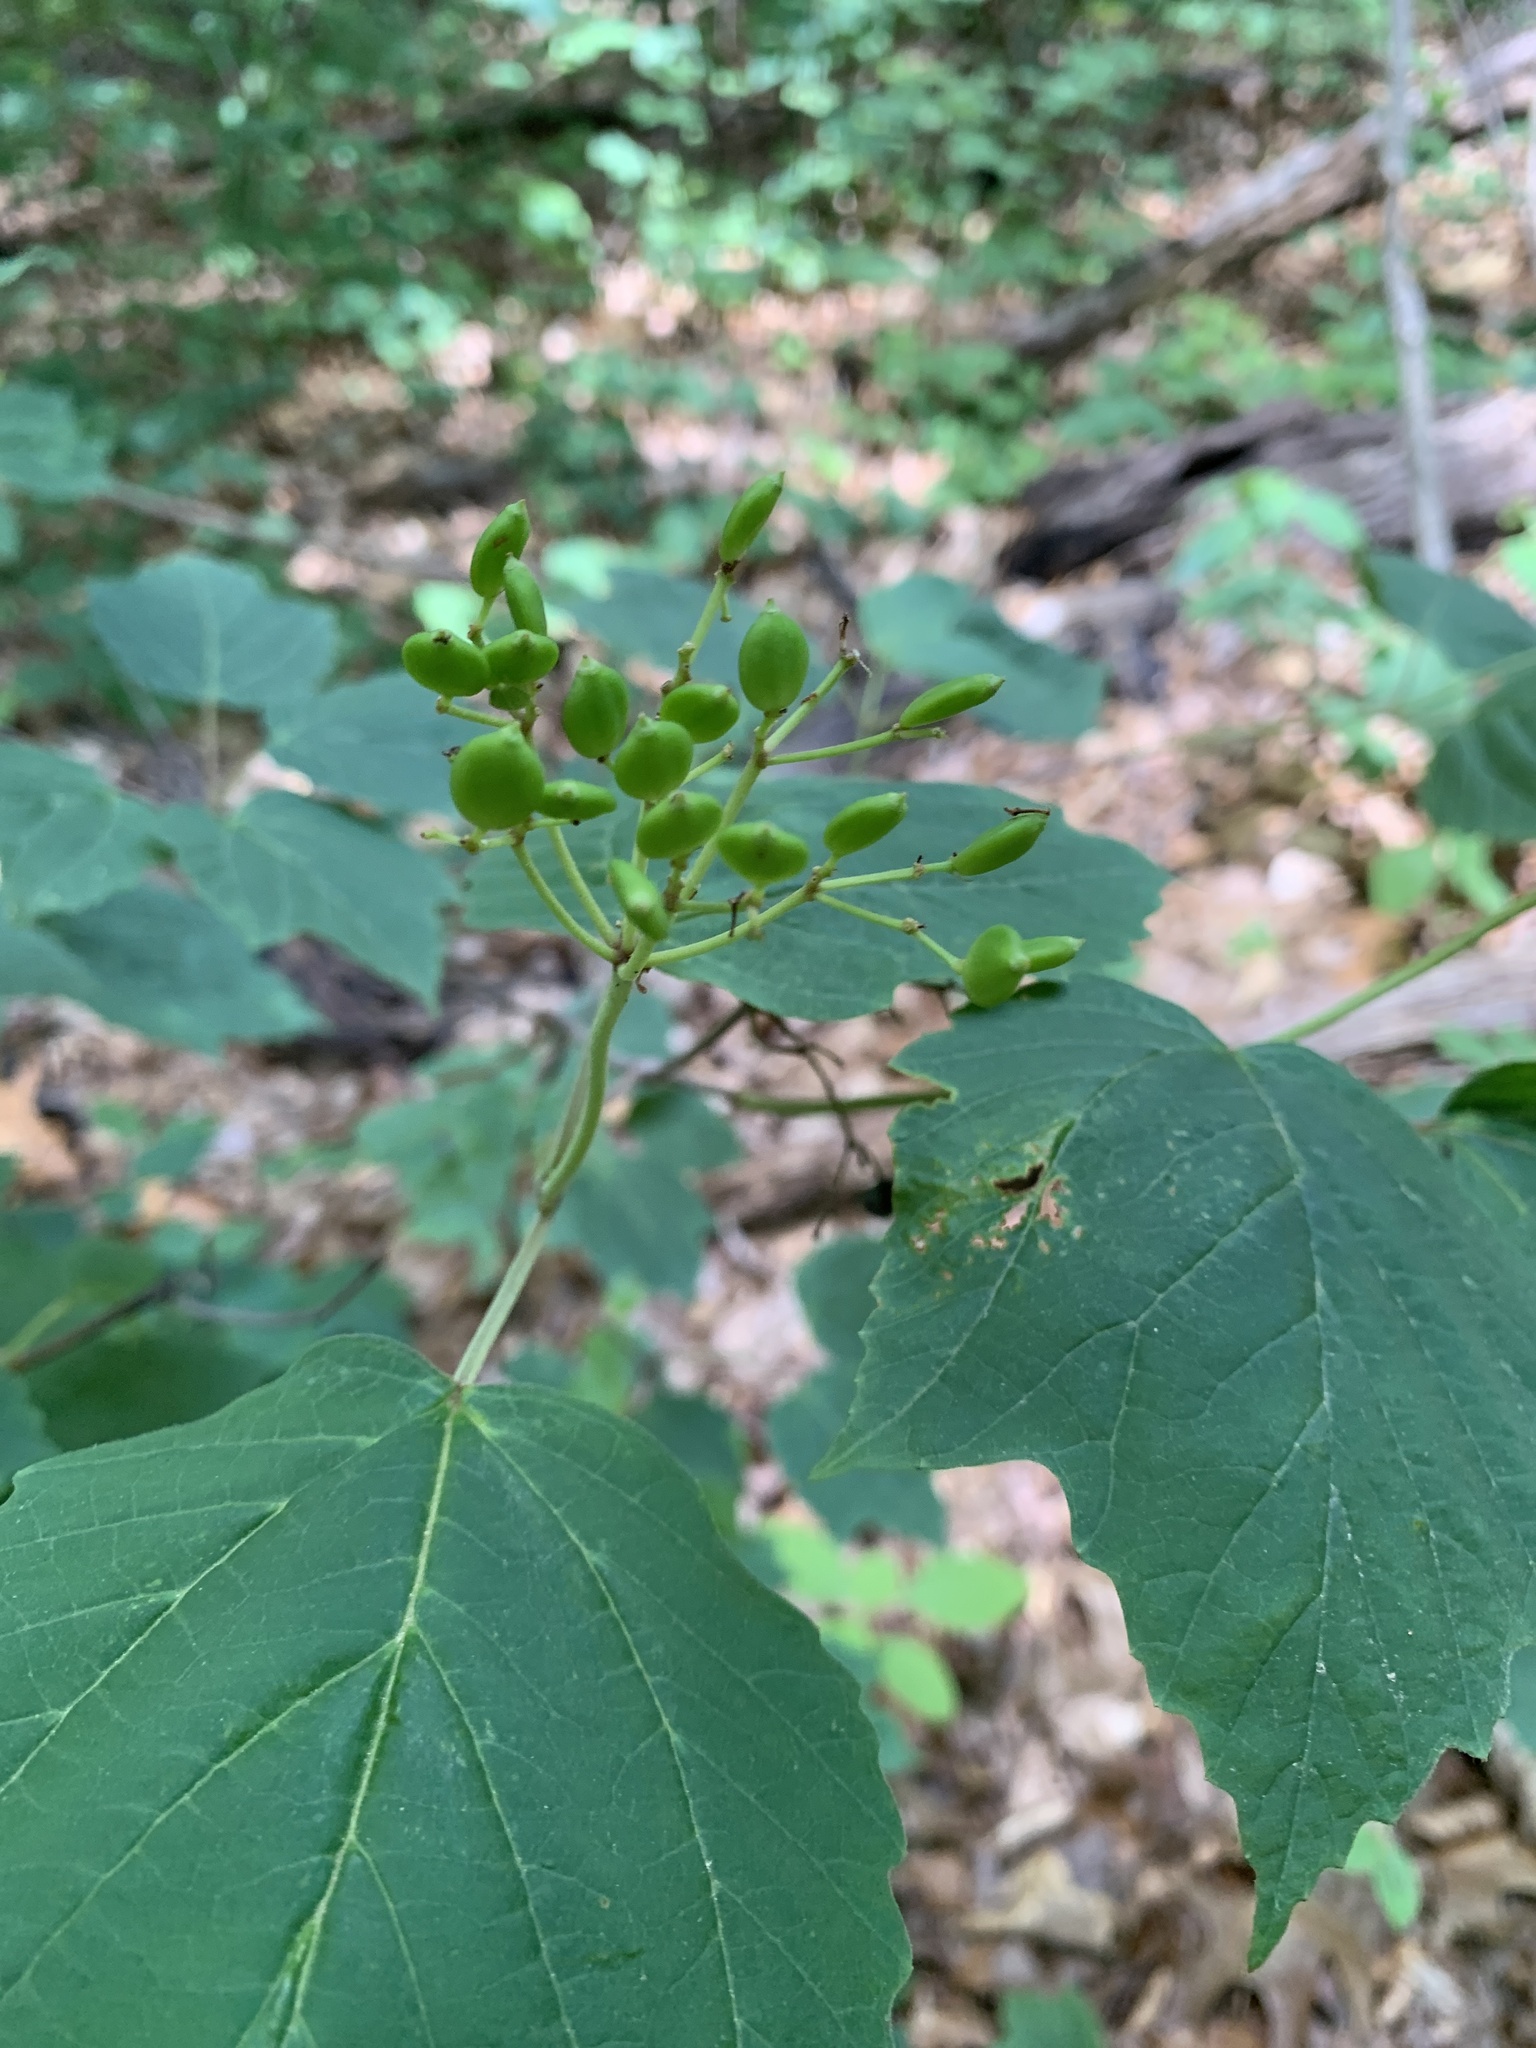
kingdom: Plantae
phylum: Tracheophyta
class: Magnoliopsida
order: Dipsacales
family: Viburnaceae
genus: Viburnum
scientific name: Viburnum acerifolium
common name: Dockmackie
